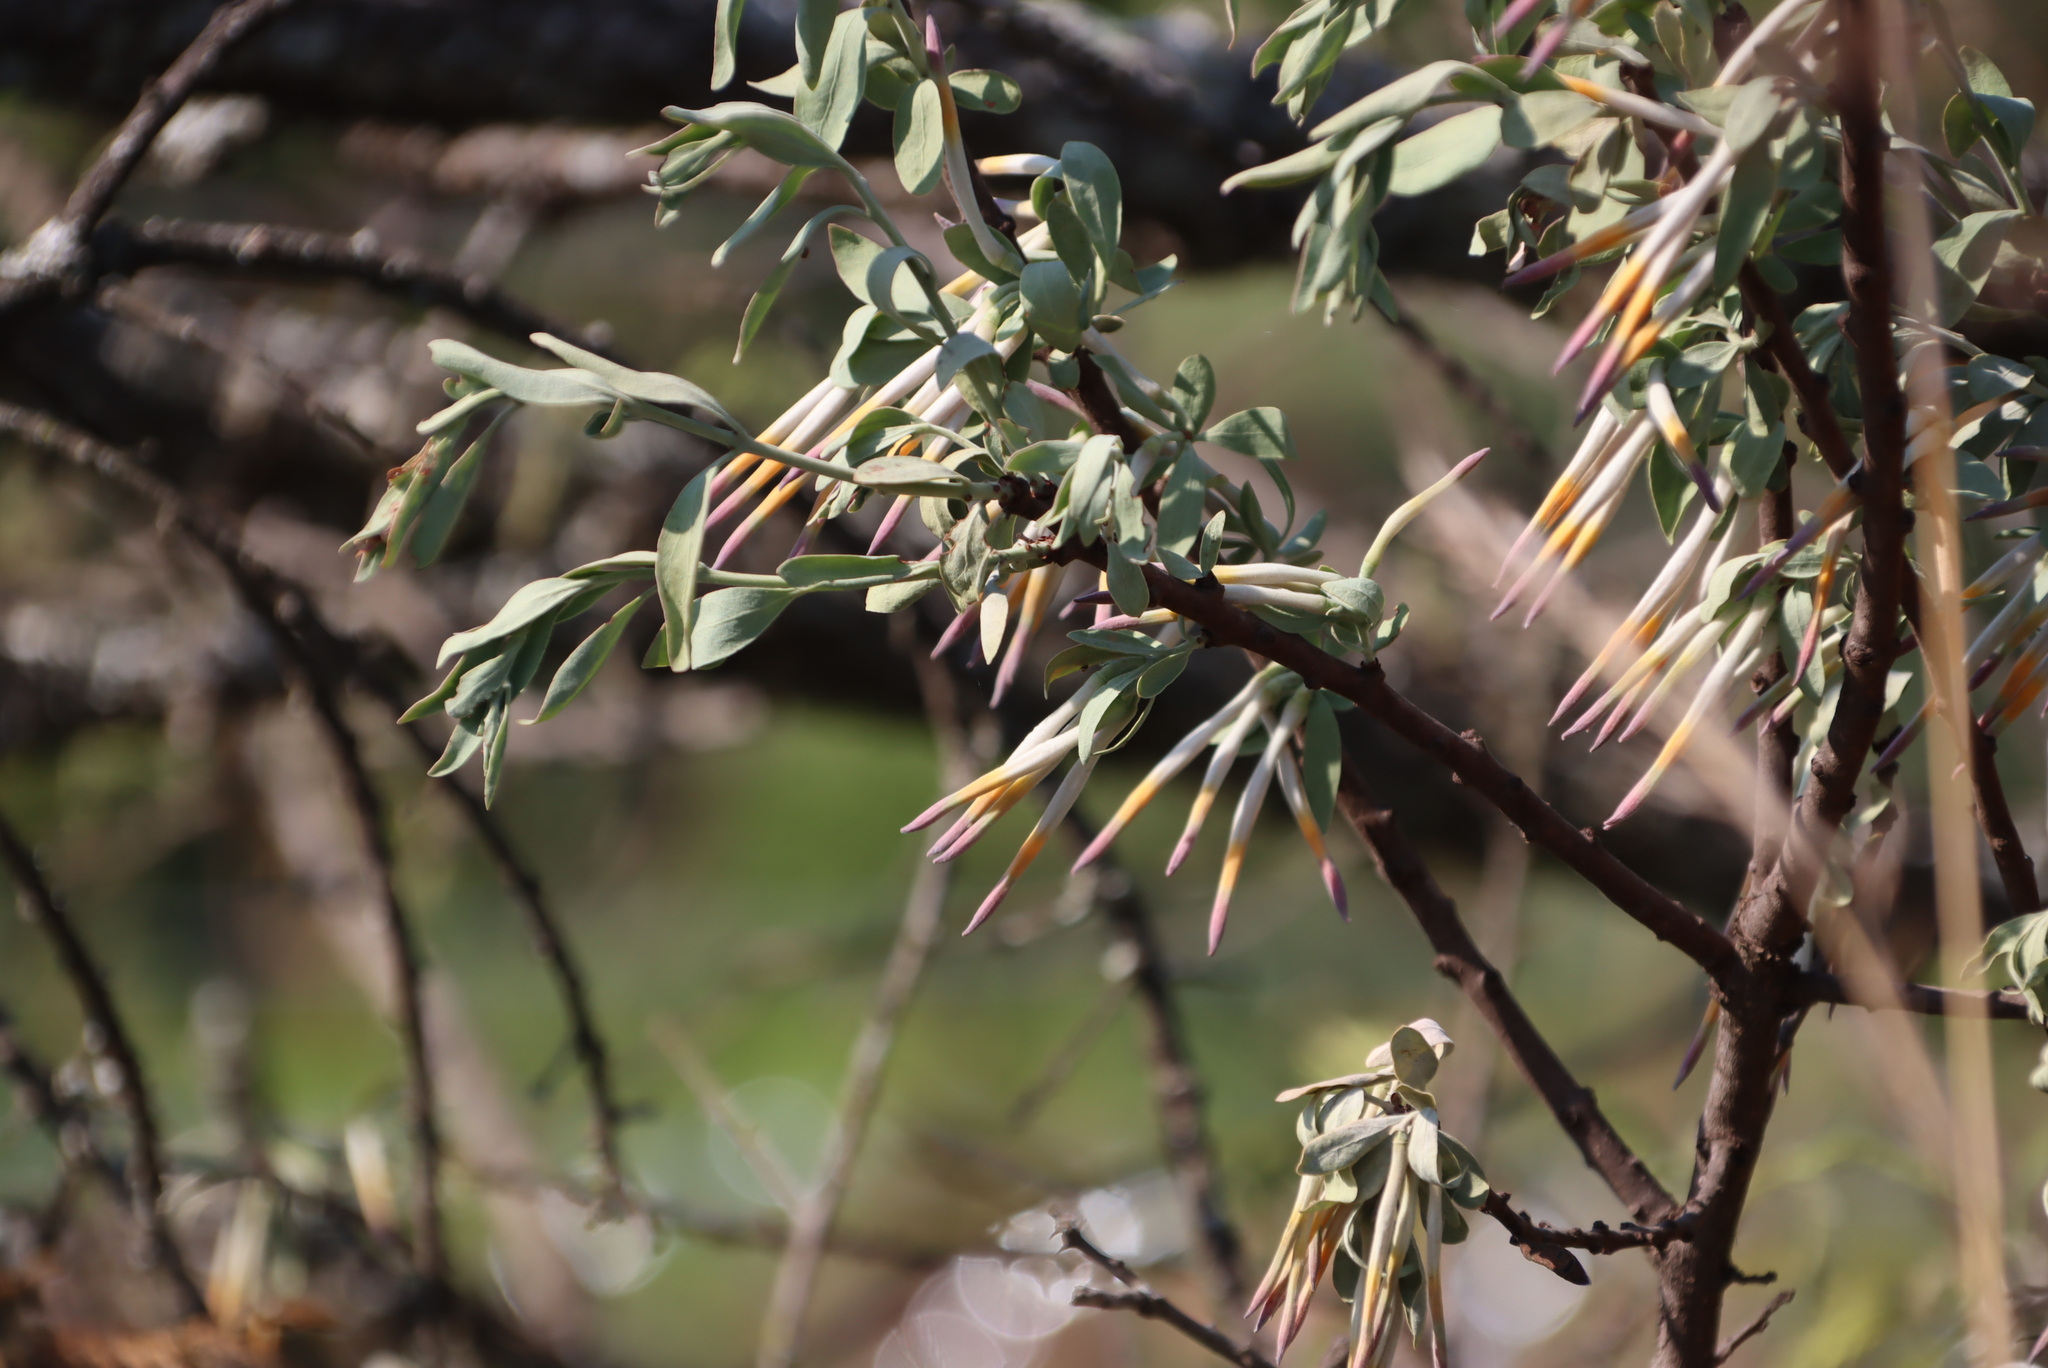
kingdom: Plantae
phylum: Tracheophyta
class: Magnoliopsida
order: Santalales
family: Loranthaceae
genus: Agelanthus
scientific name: Agelanthus natalitius
